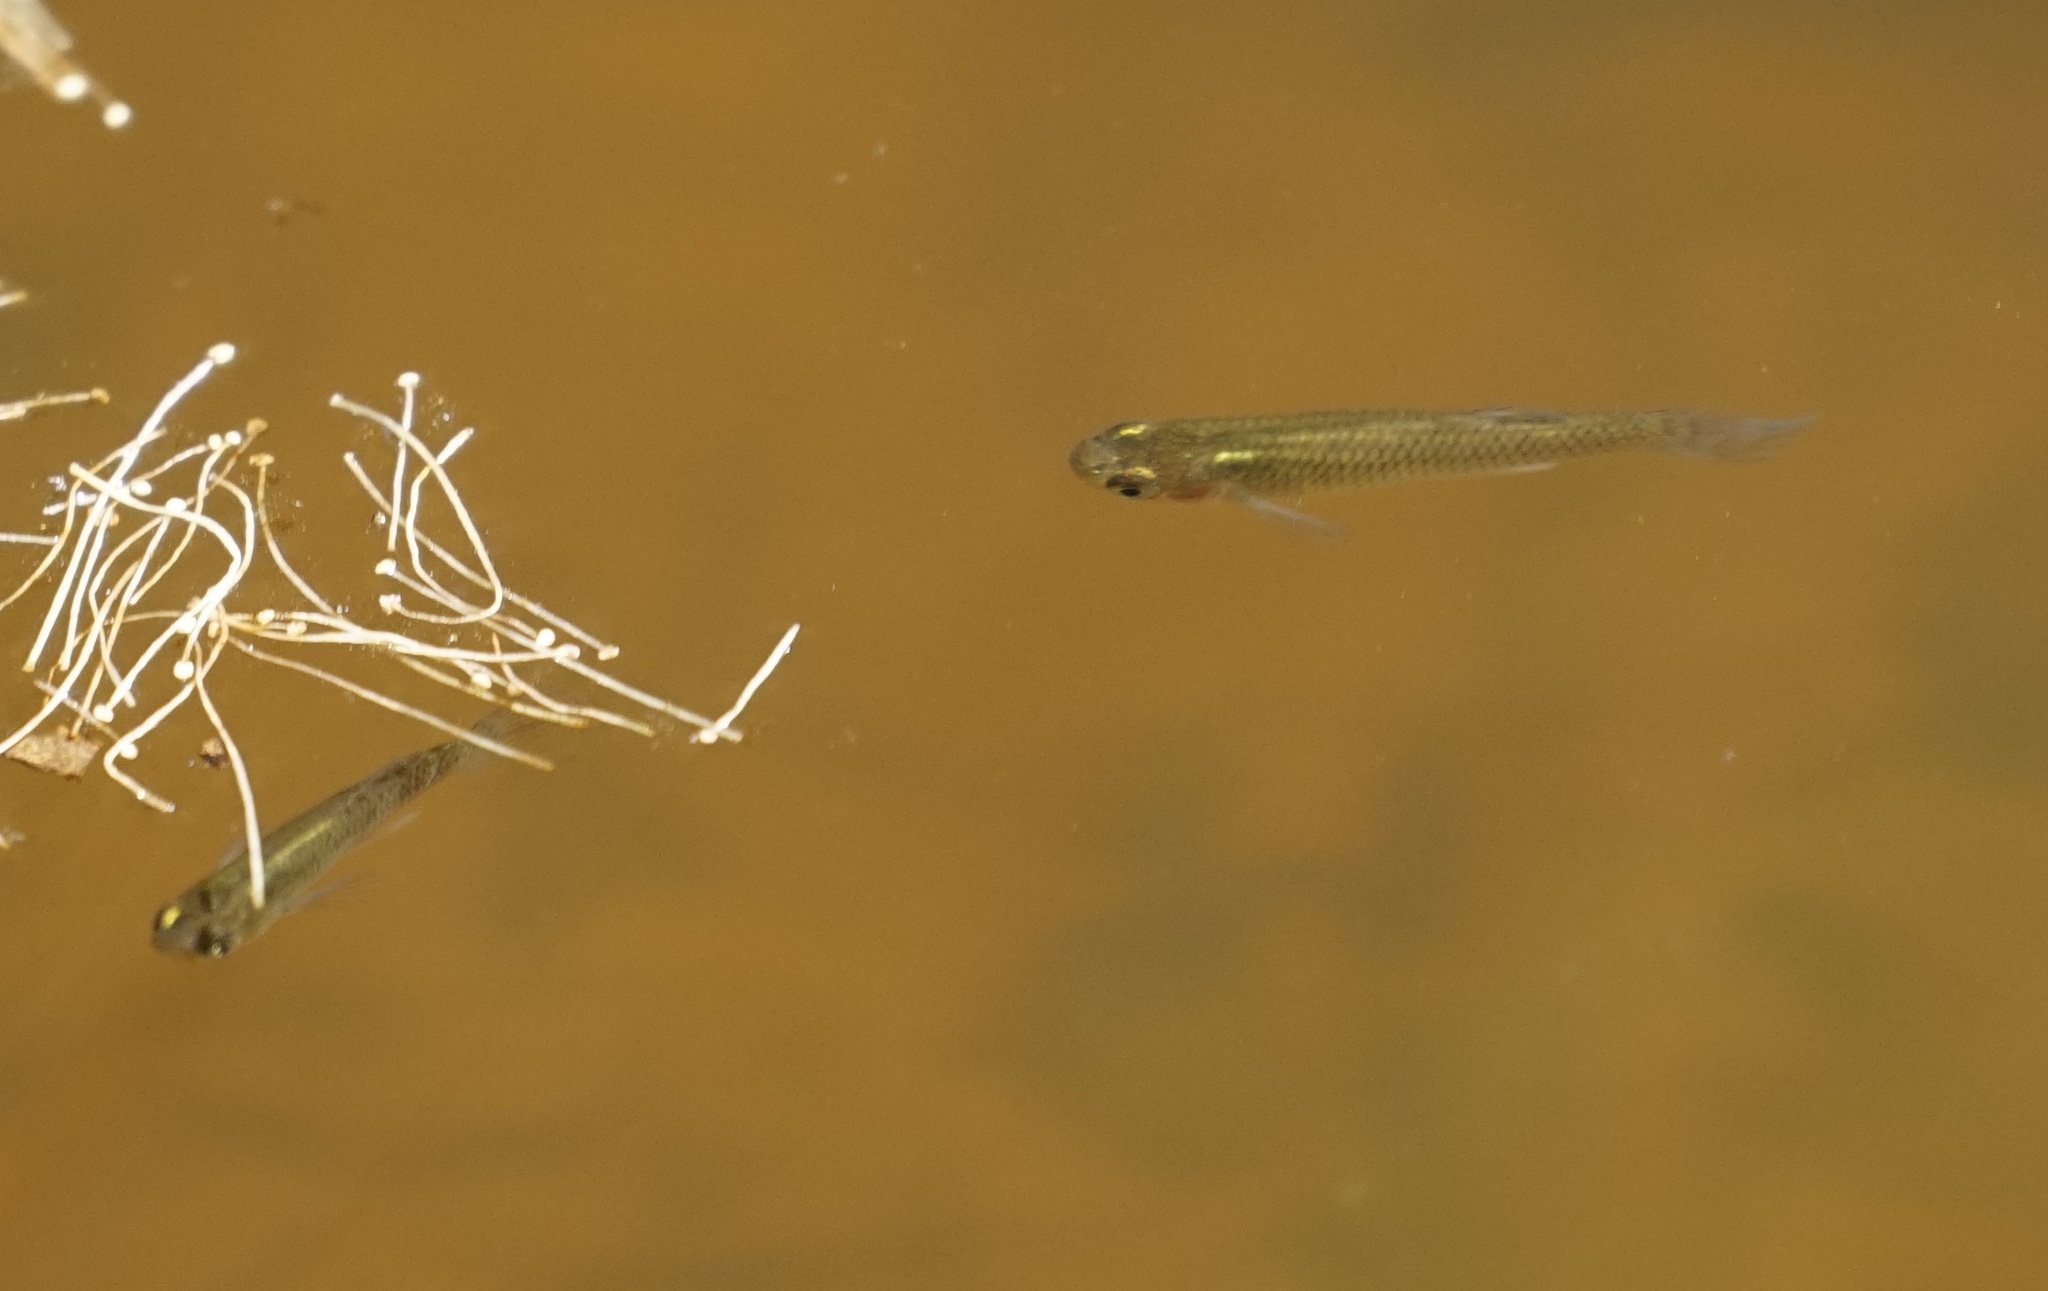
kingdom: Animalia
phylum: Chordata
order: Cyprinodontiformes
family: Poeciliidae
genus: Gambusia
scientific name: Gambusia holbrooki
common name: Eastern mosquitofish
